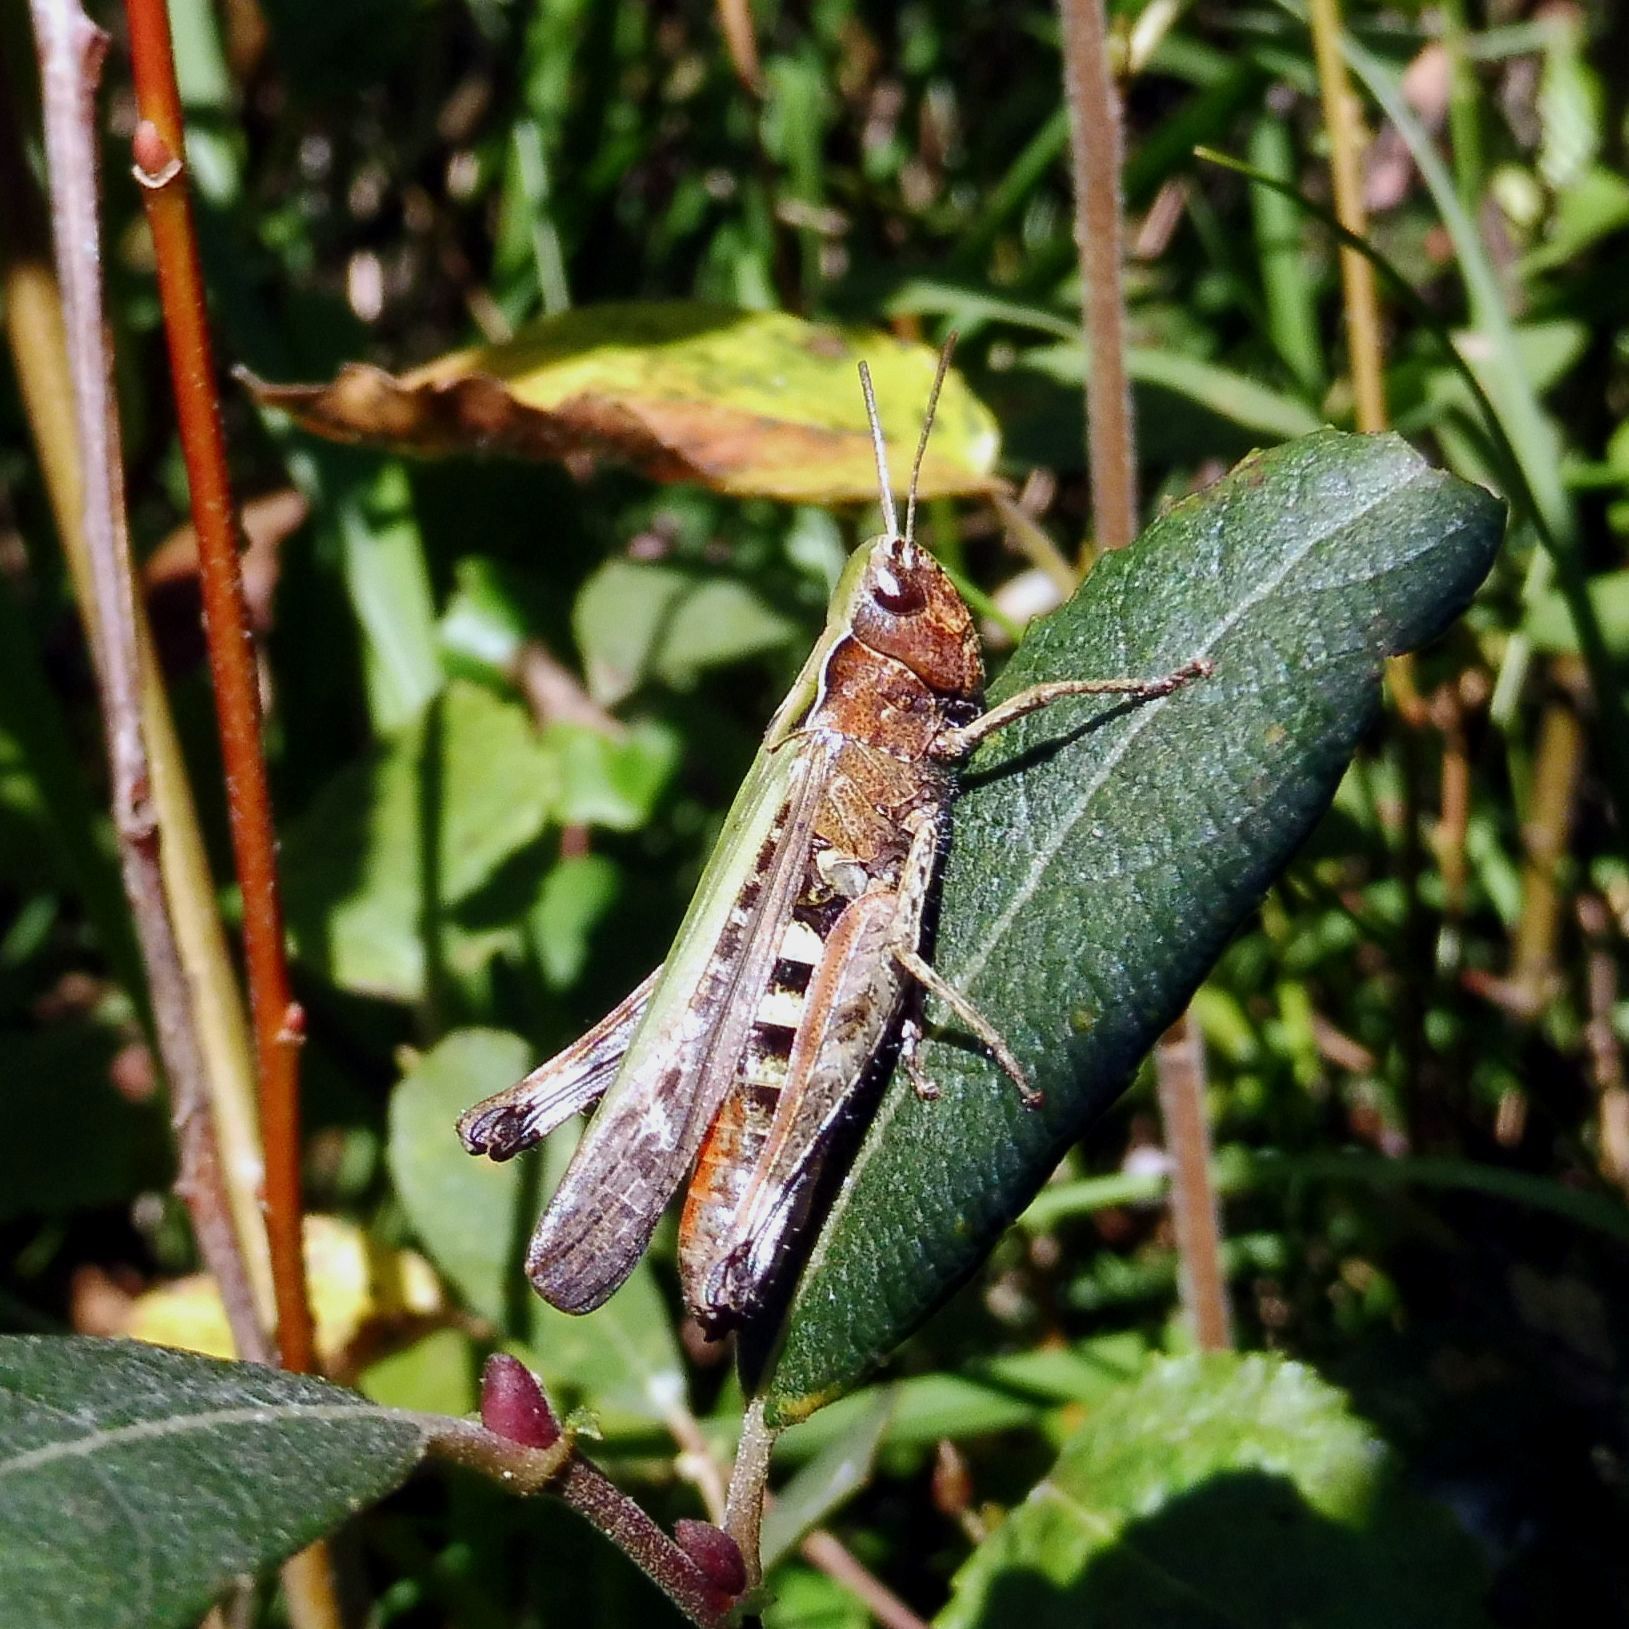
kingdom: Animalia
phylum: Arthropoda
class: Insecta
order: Orthoptera
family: Acrididae
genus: Omocestus
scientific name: Omocestus rufipes
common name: Woodland grasshopper
